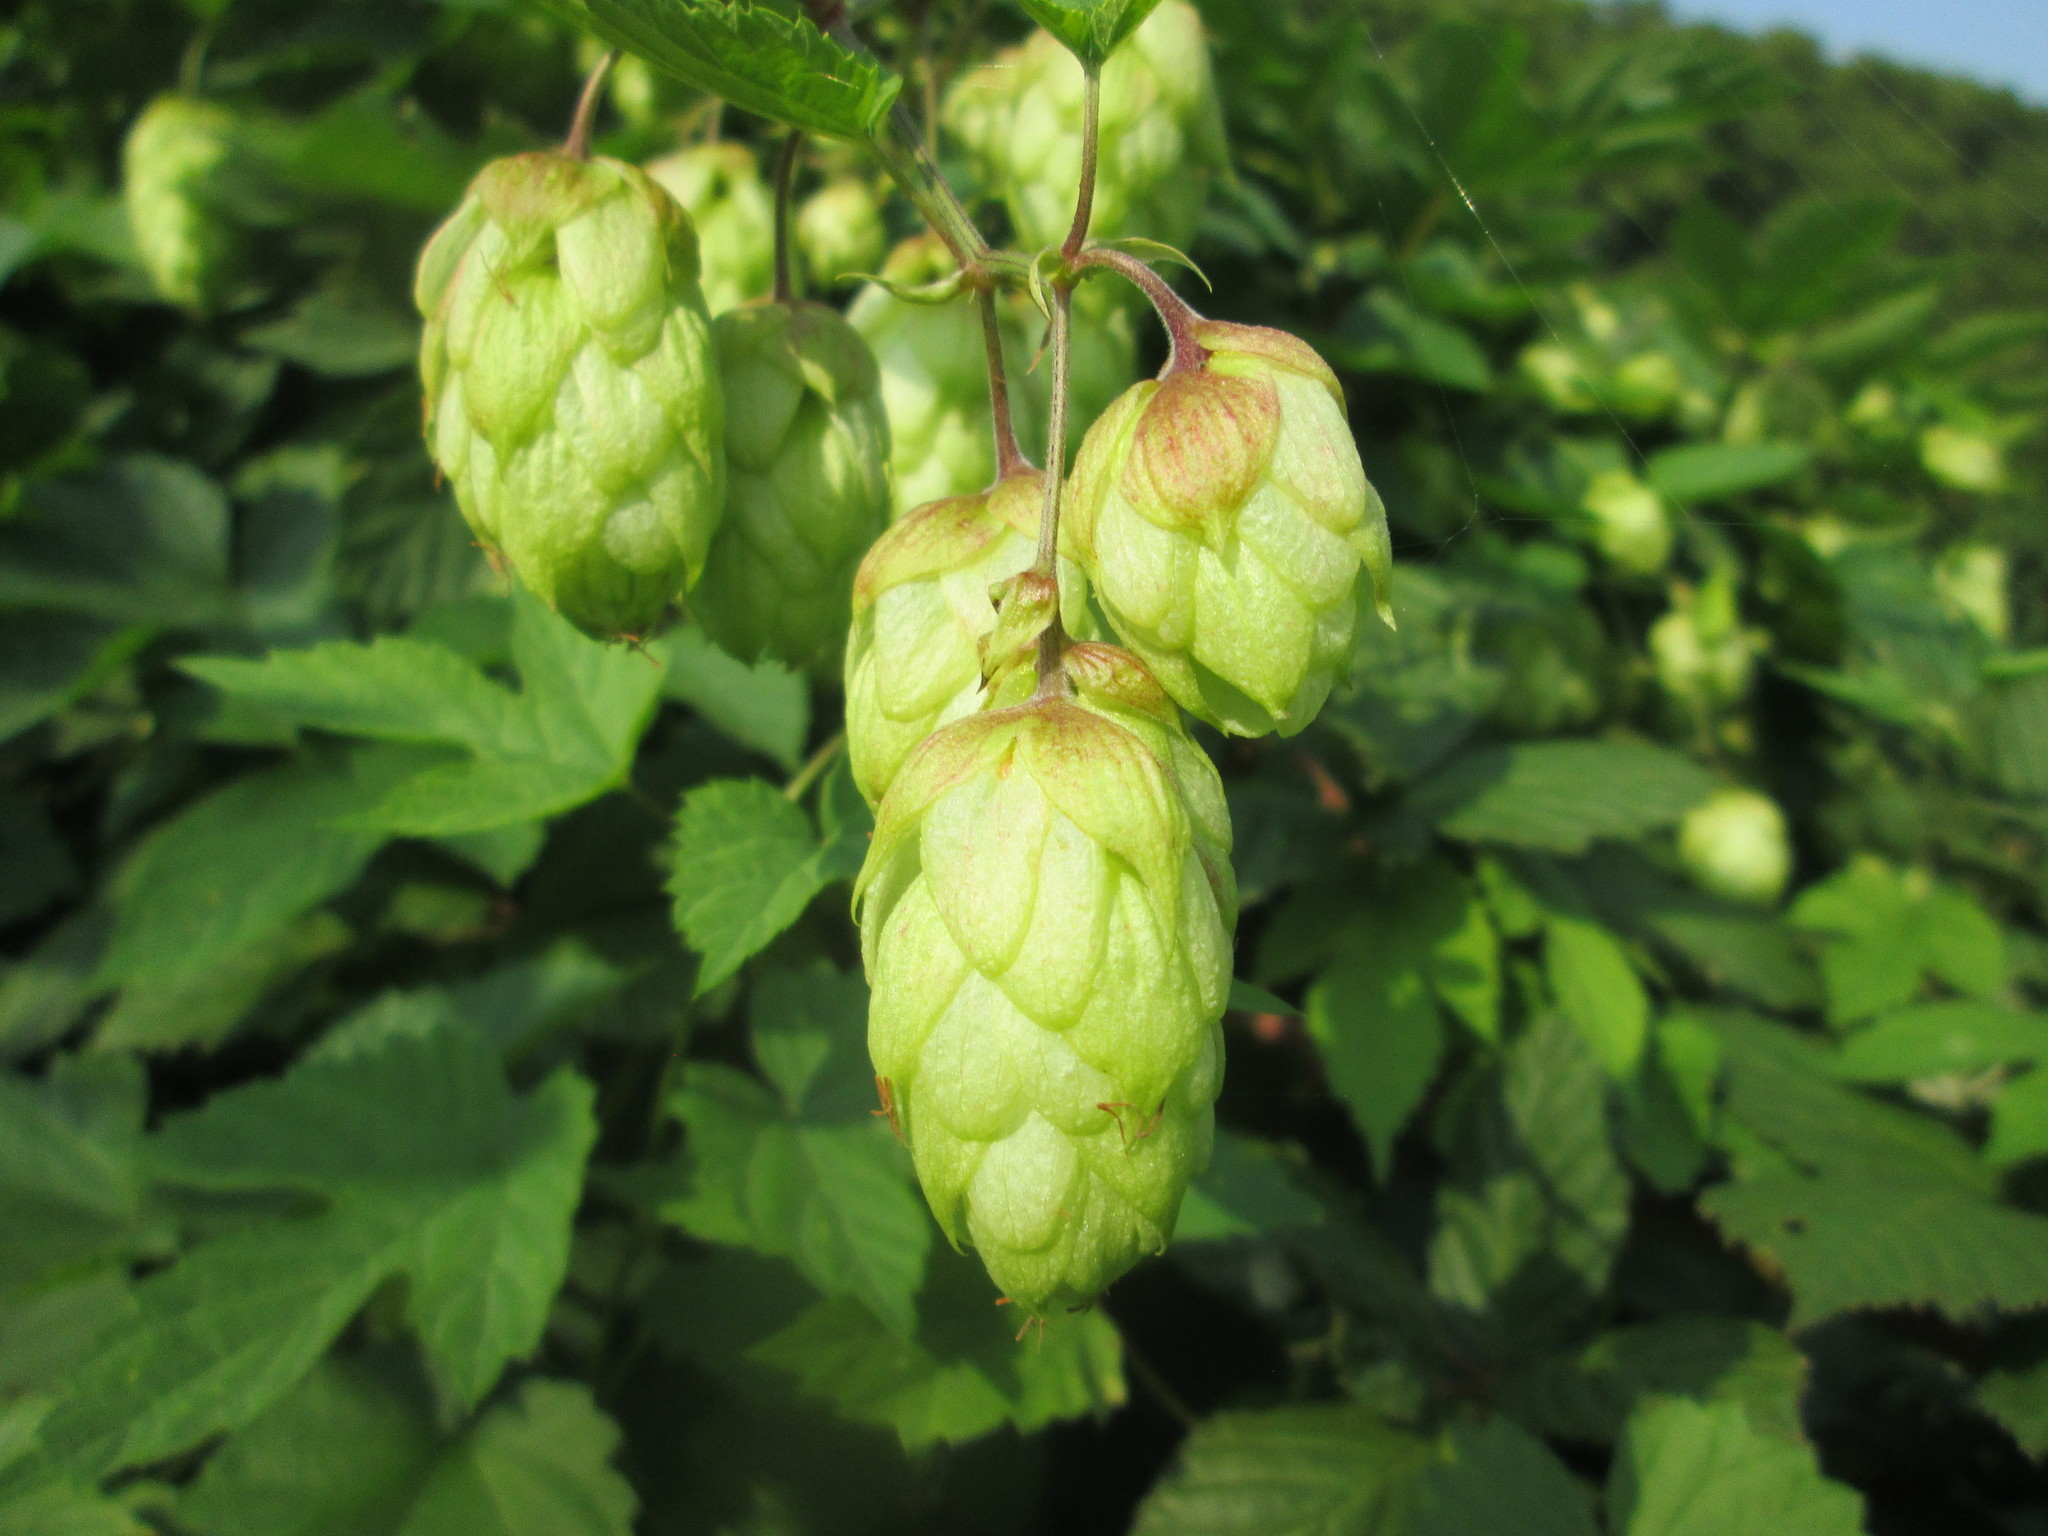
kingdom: Plantae
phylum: Tracheophyta
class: Magnoliopsida
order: Rosales
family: Cannabaceae
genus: Humulus
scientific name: Humulus lupulus
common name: Hop
